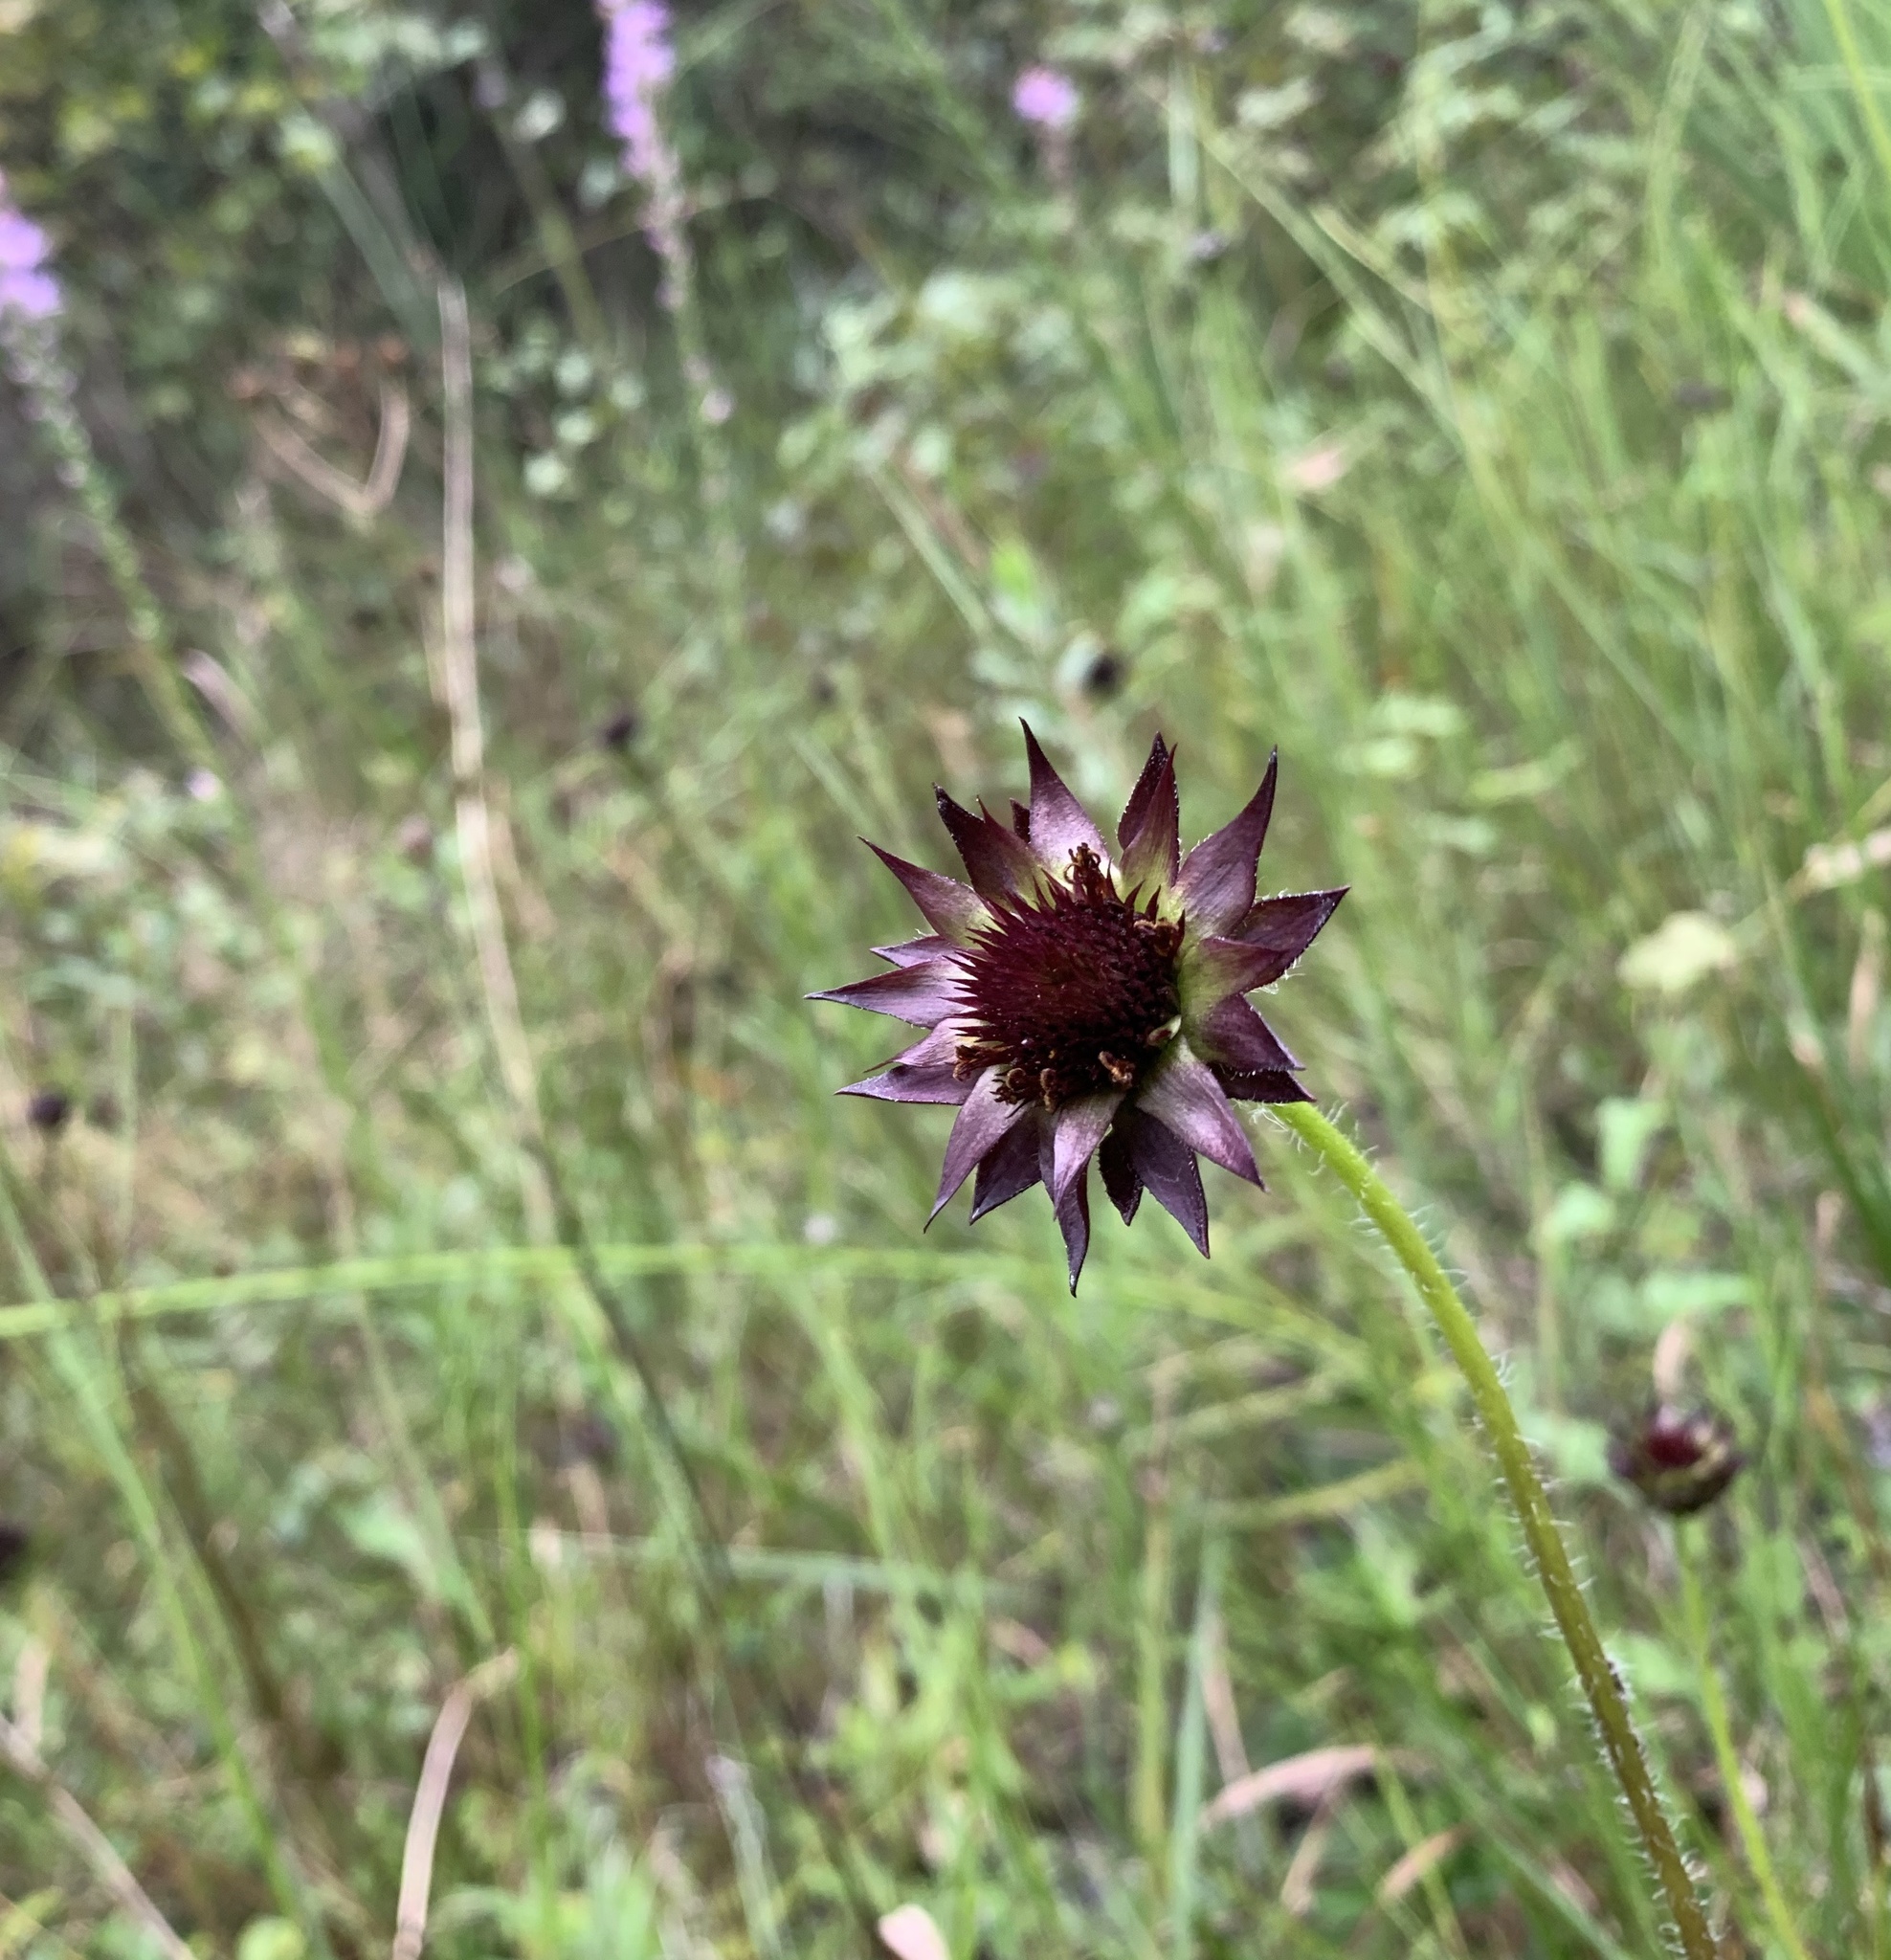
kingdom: Plantae
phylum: Tracheophyta
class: Magnoliopsida
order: Asterales
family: Asteraceae
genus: Helianthus
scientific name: Helianthus radula
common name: Pineland sunflower
